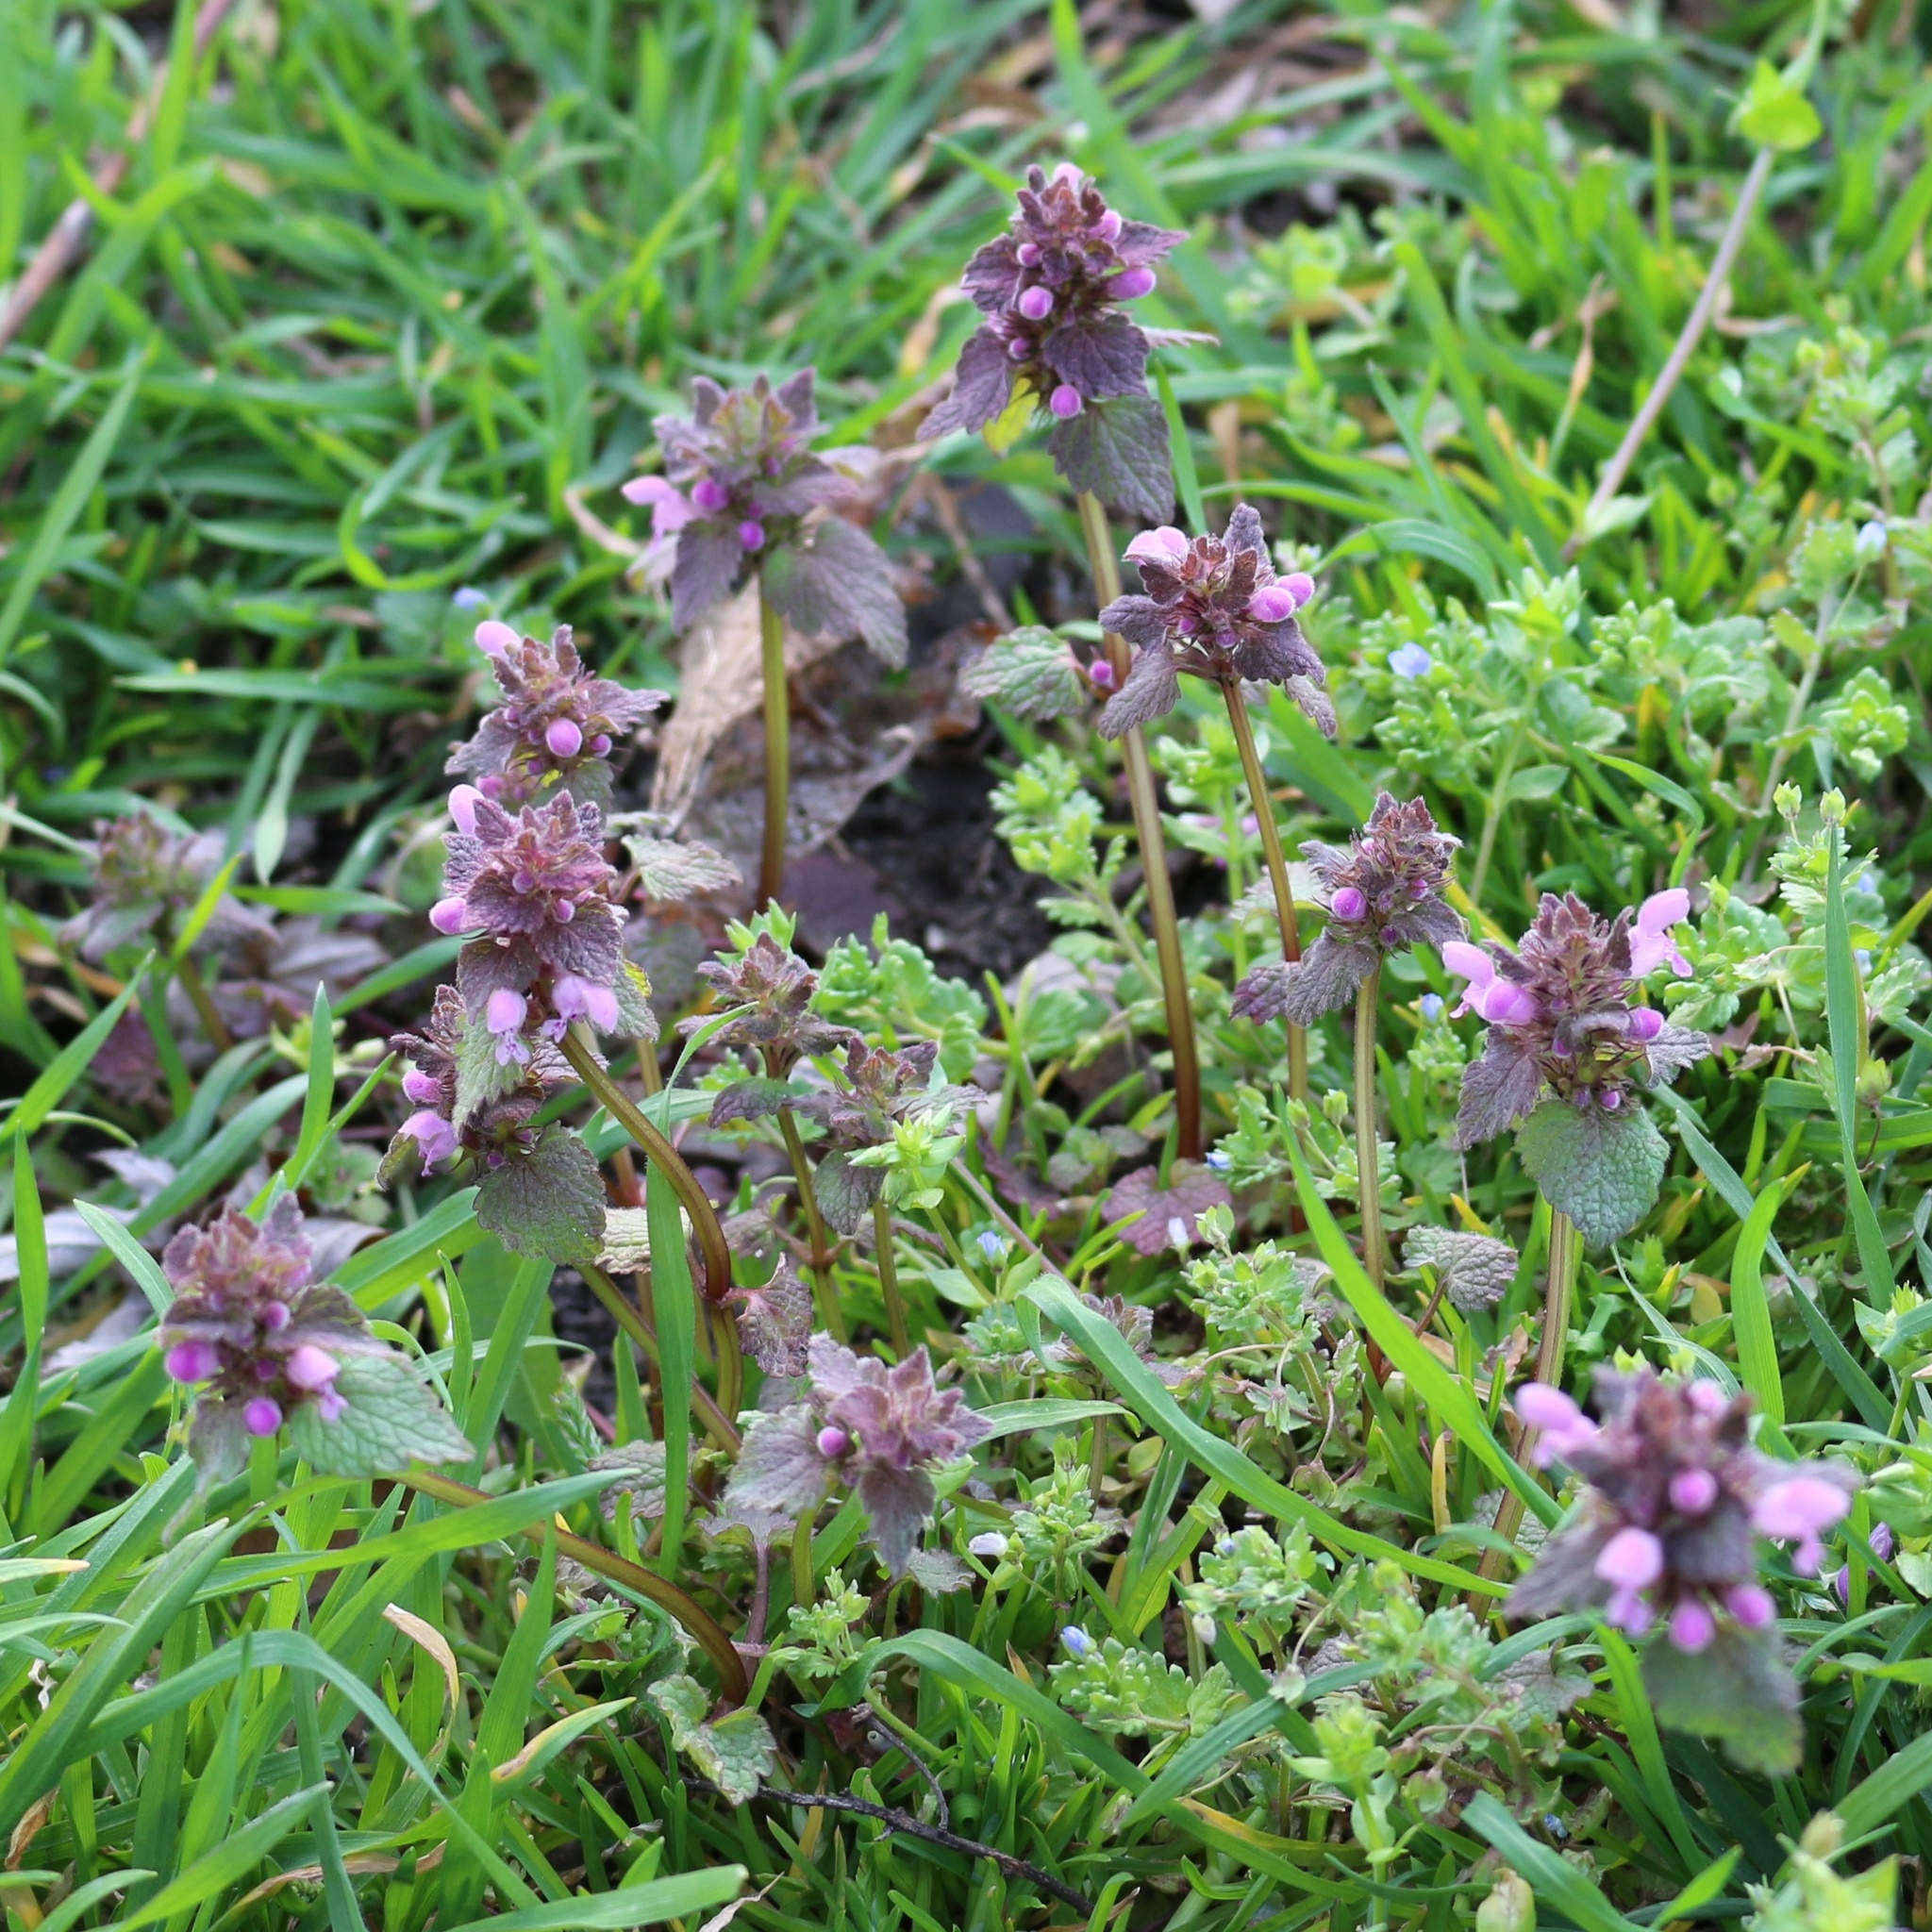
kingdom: Plantae
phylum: Tracheophyta
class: Magnoliopsida
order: Lamiales
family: Lamiaceae
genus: Lamium
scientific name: Lamium purpureum
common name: Red dead-nettle
